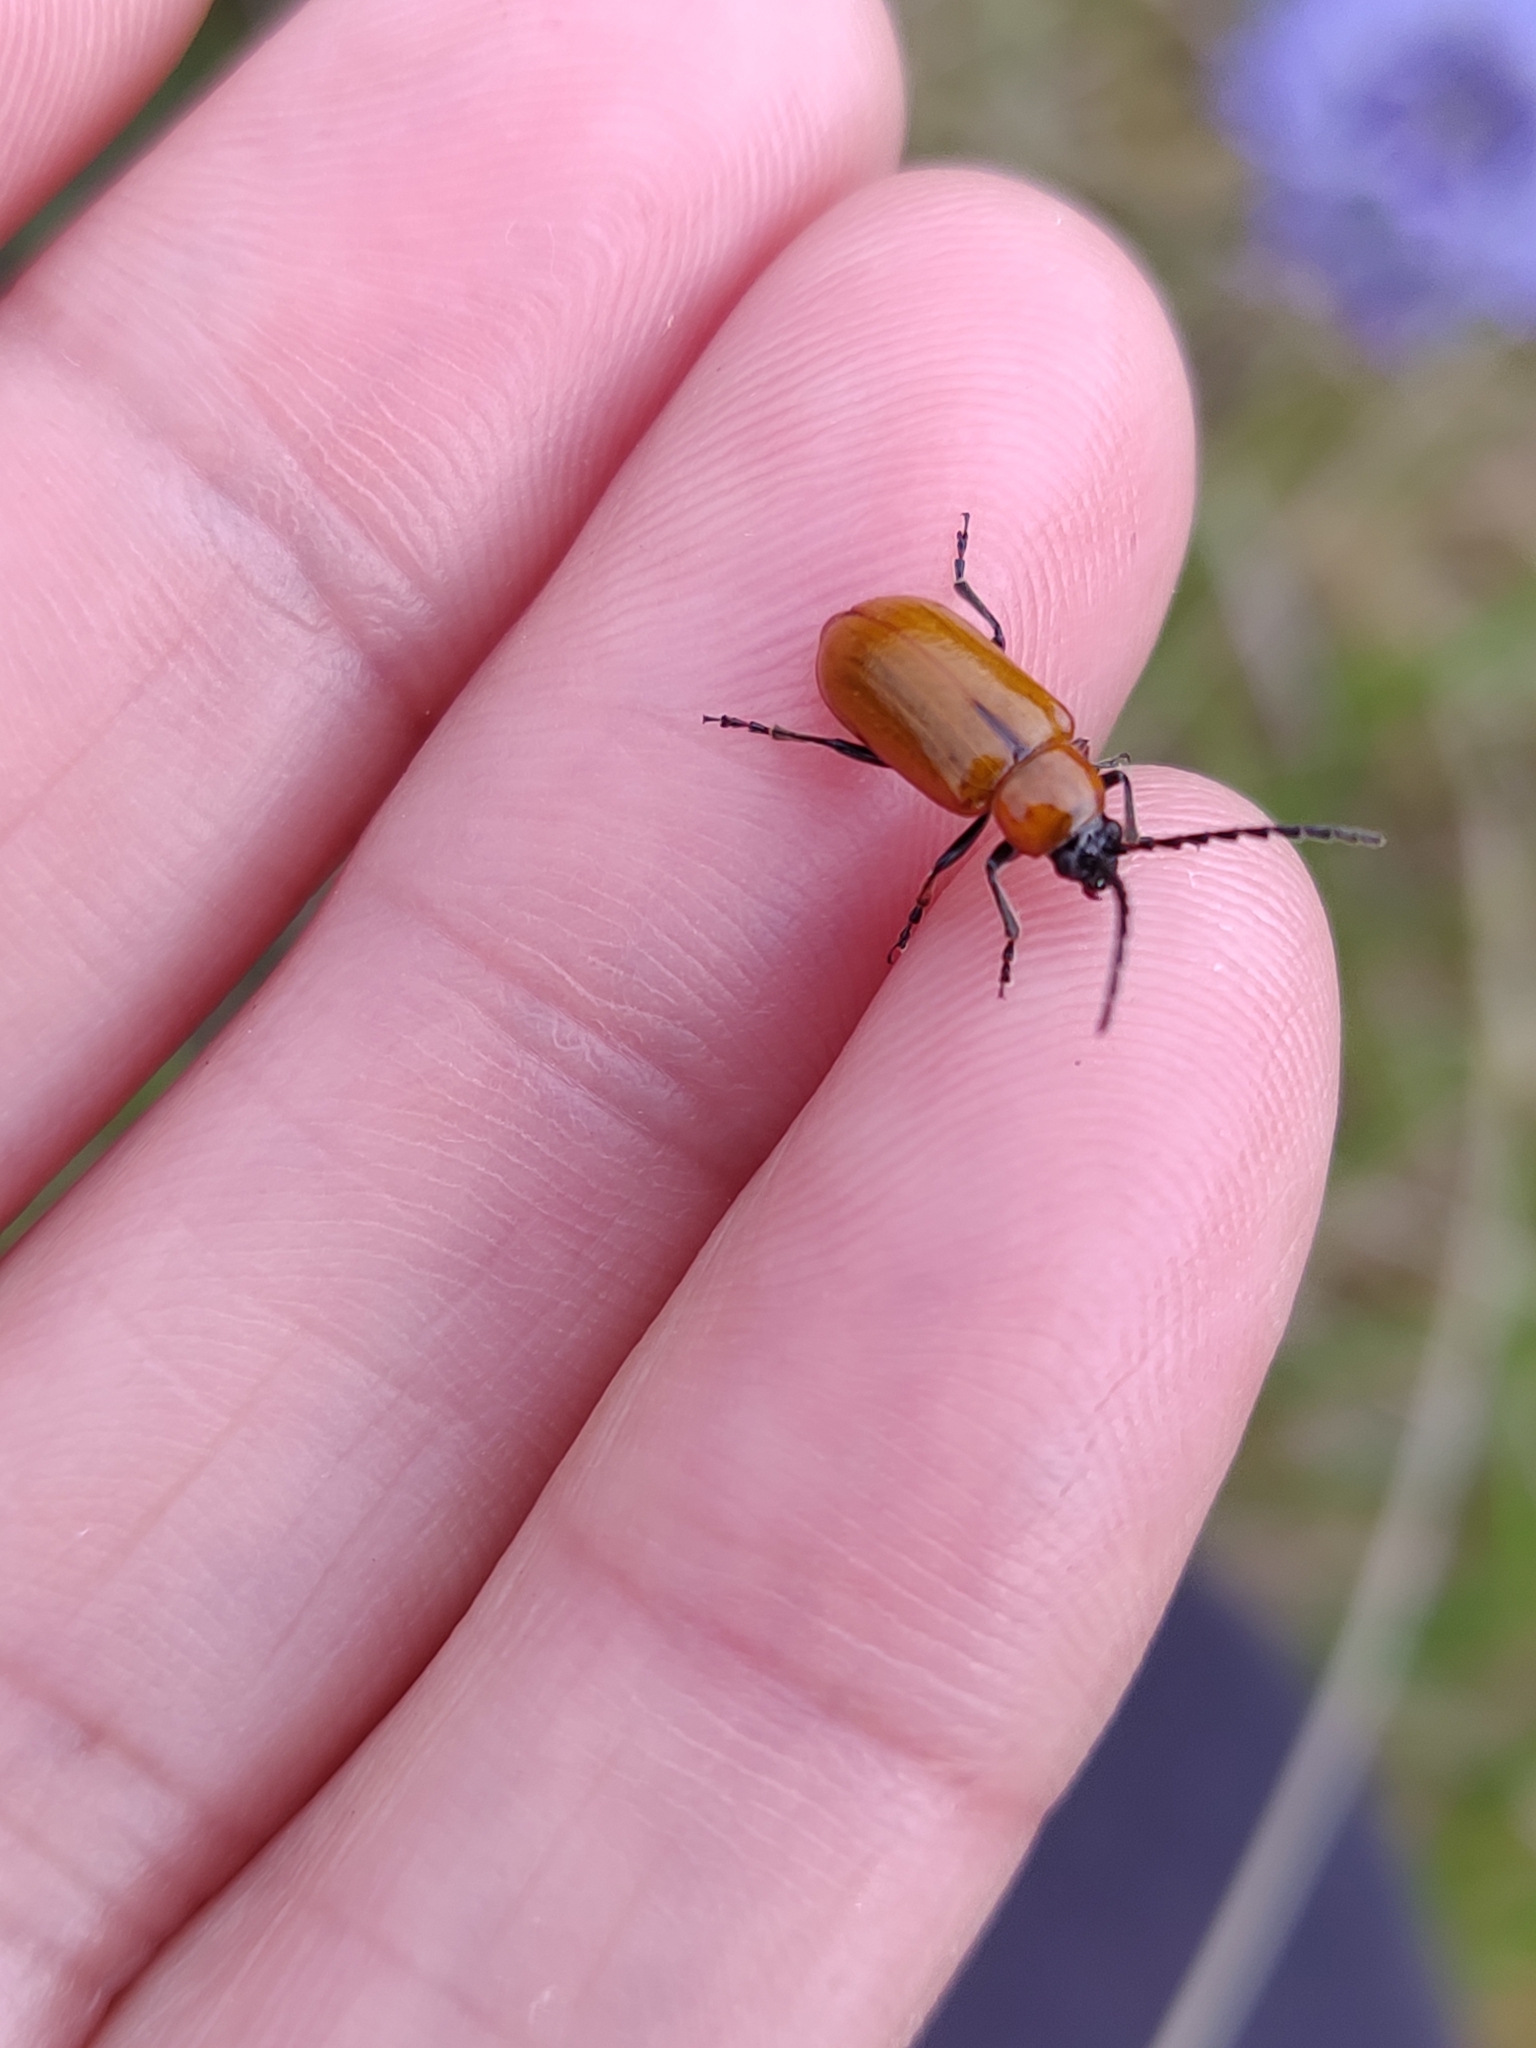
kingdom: Animalia
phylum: Arthropoda
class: Insecta
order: Coleoptera
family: Chrysomelidae
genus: Exosoma
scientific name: Exosoma lusitanicum
